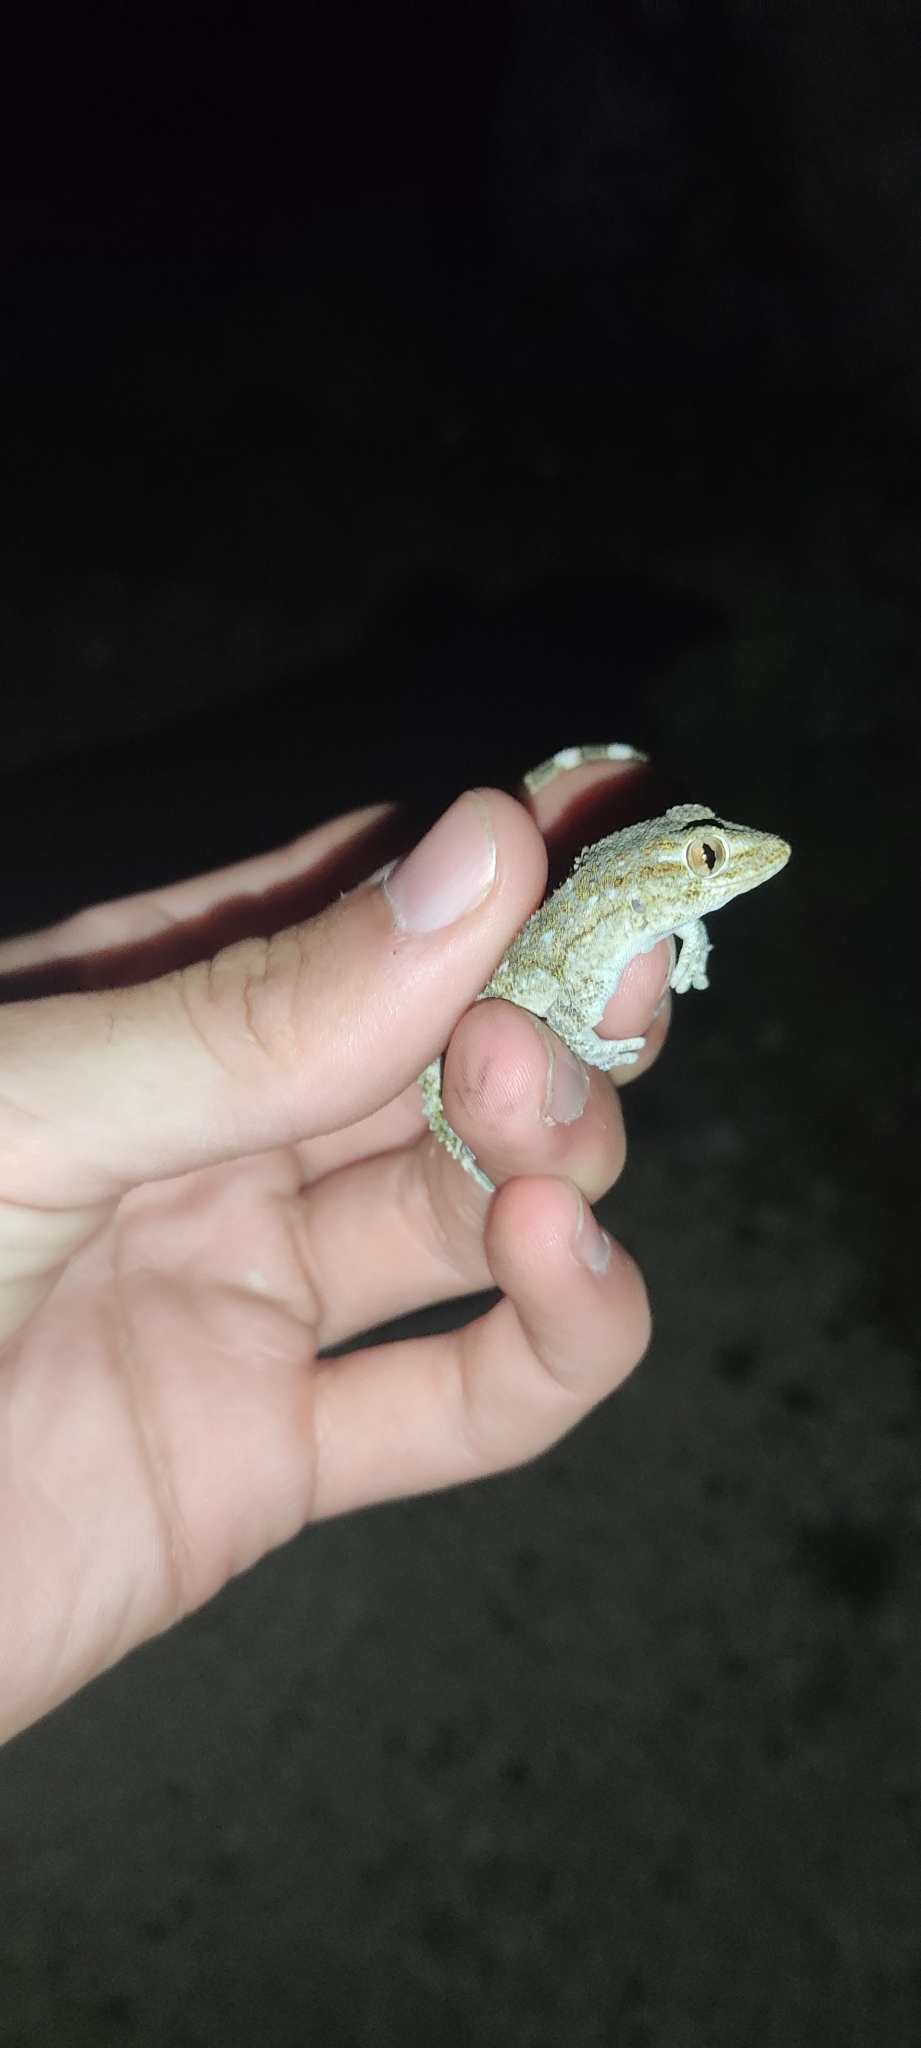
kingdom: Animalia
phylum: Chordata
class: Squamata
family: Phyllodactylidae
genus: Tarentola
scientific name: Tarentola mauritanica
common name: Moorish gecko
